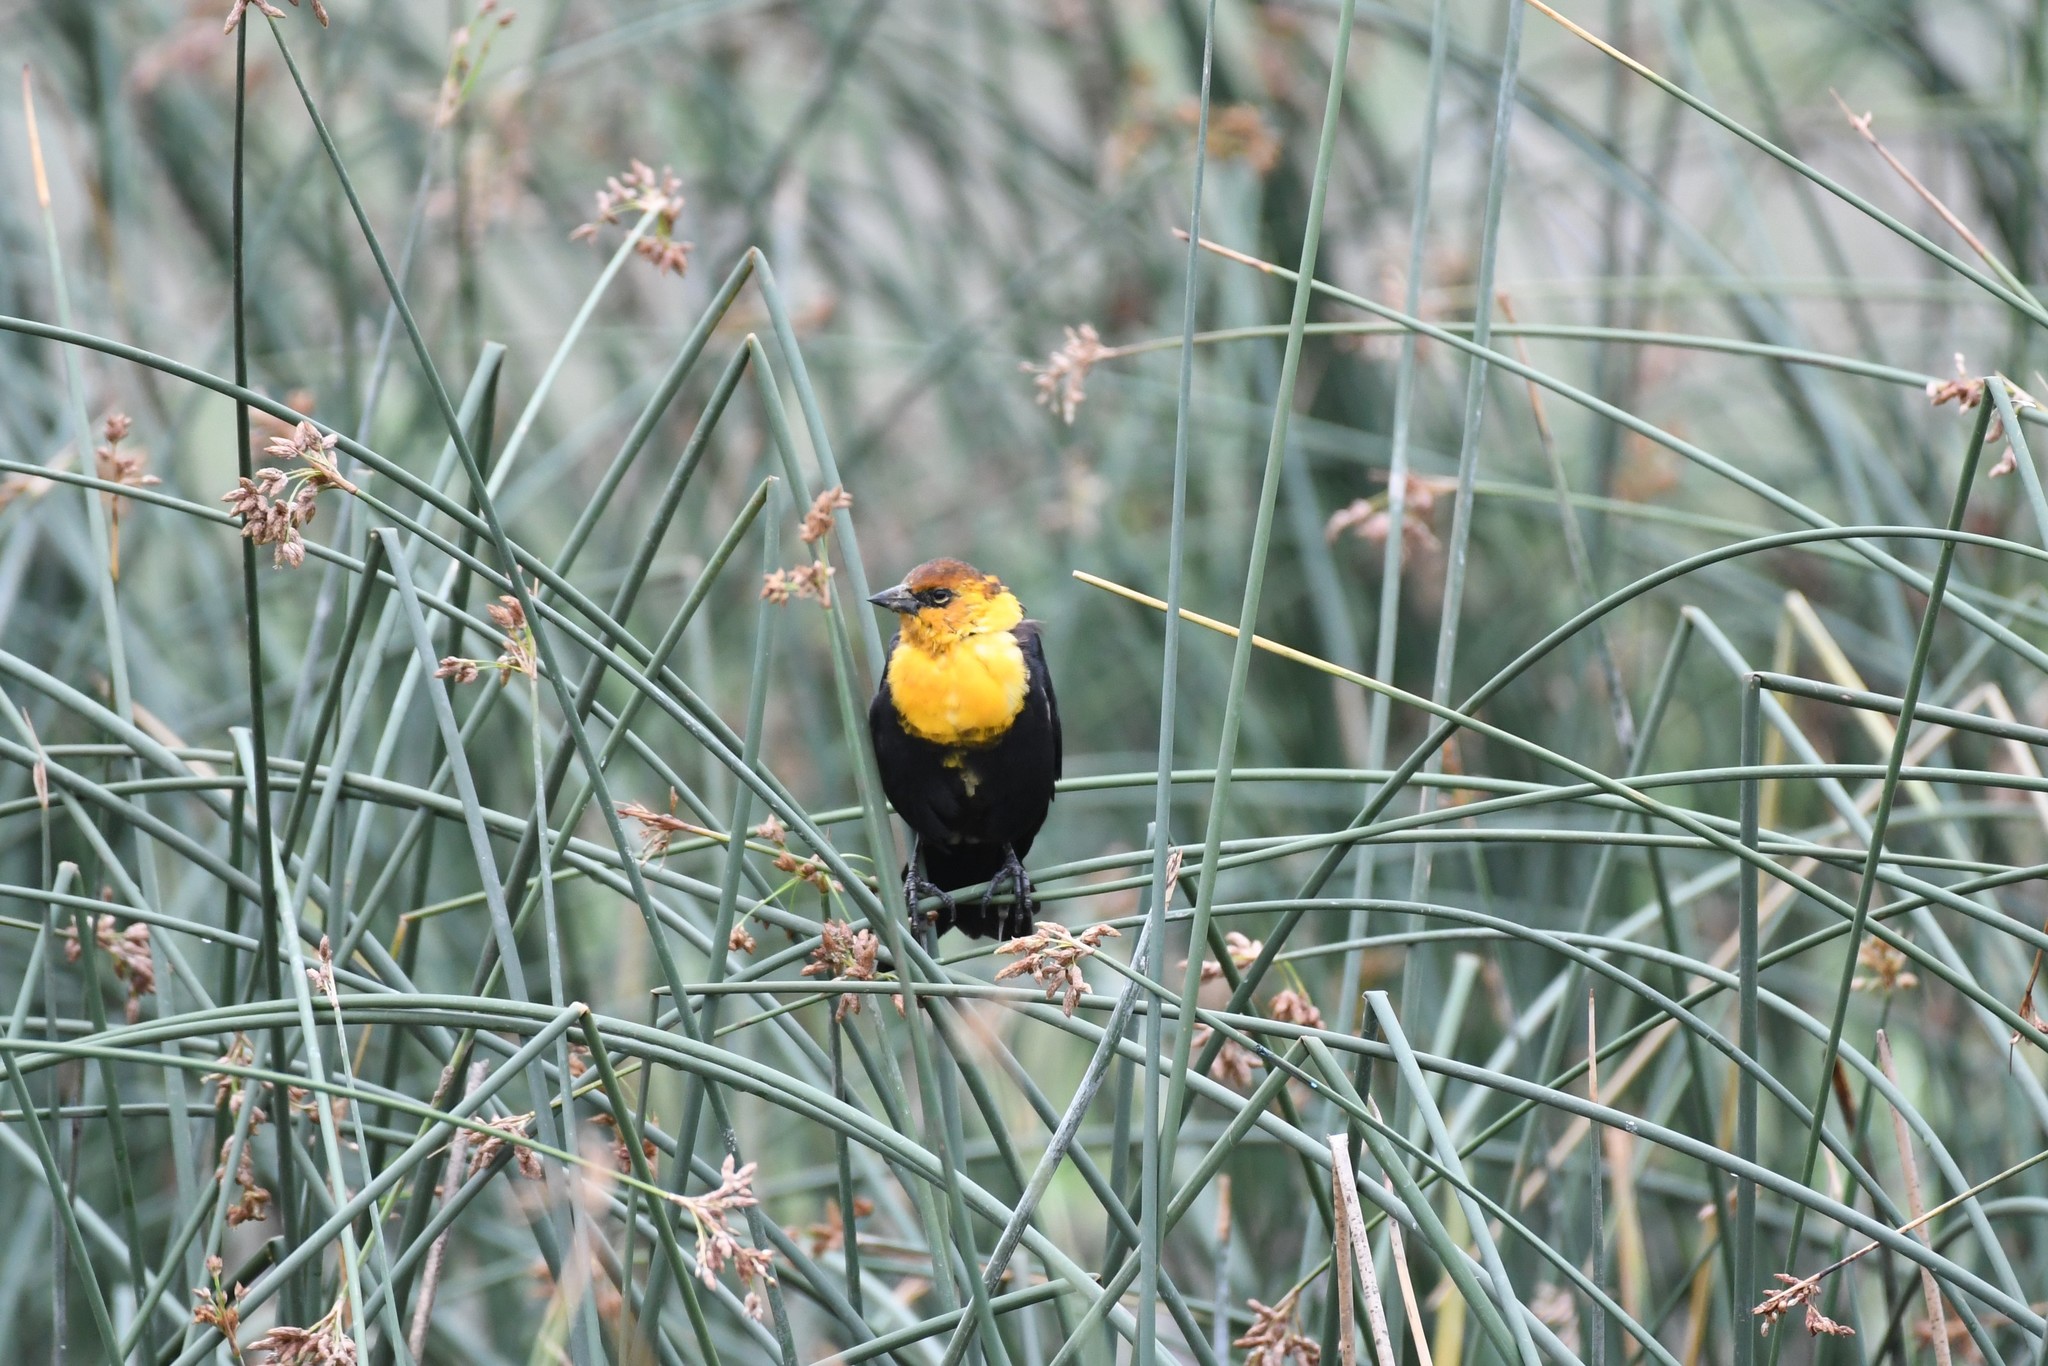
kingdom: Animalia
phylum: Chordata
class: Aves
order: Passeriformes
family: Icteridae
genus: Xanthocephalus
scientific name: Xanthocephalus xanthocephalus
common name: Yellow-headed blackbird
